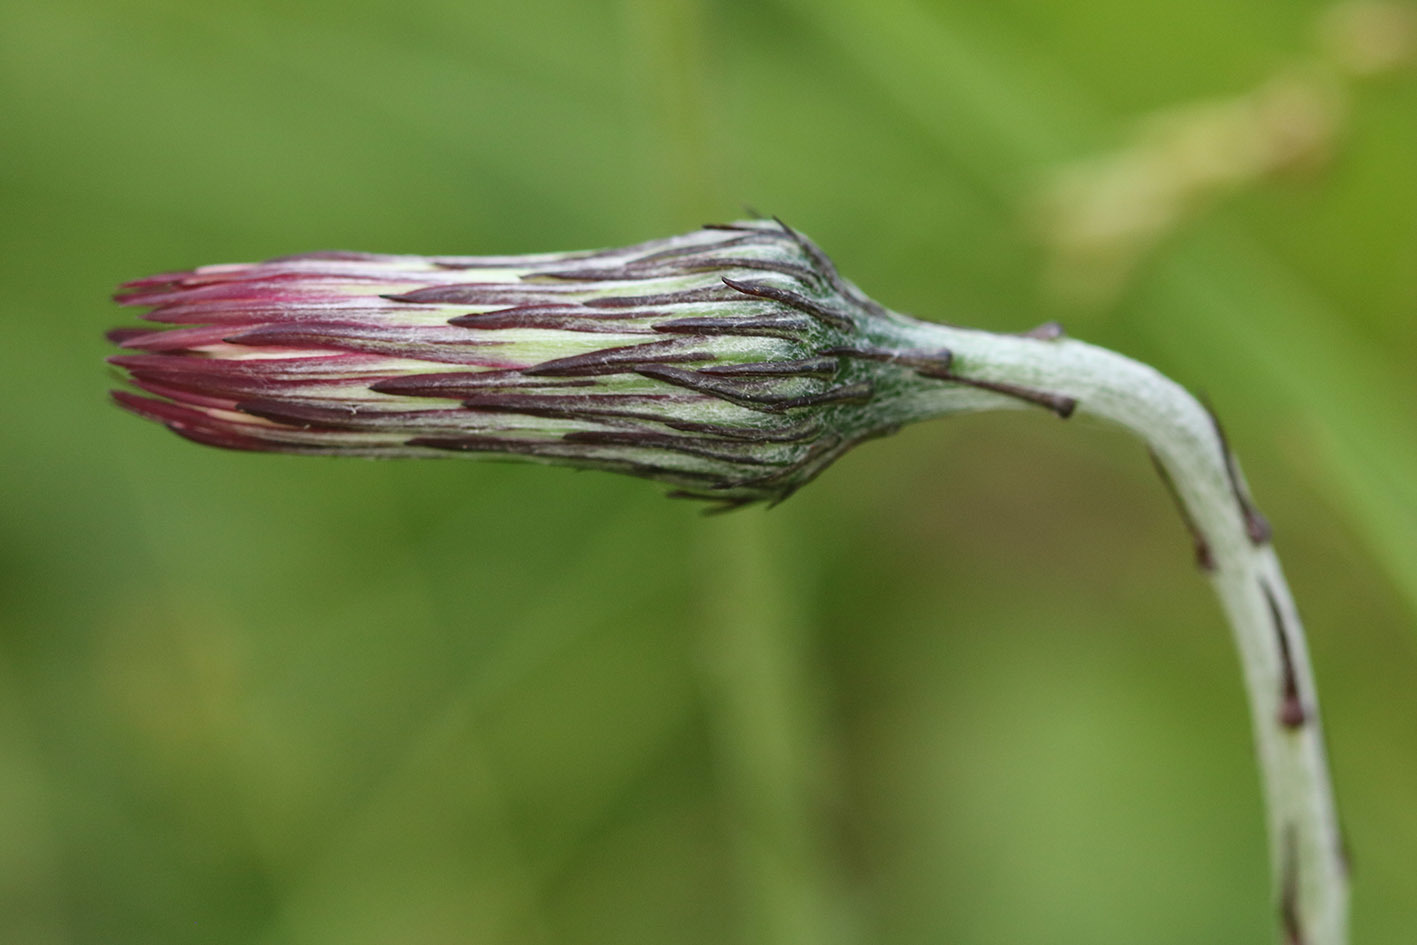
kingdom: Plantae
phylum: Tracheophyta
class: Magnoliopsida
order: Asterales
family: Asteraceae
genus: Chaptalia
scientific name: Chaptalia arechavaletae
